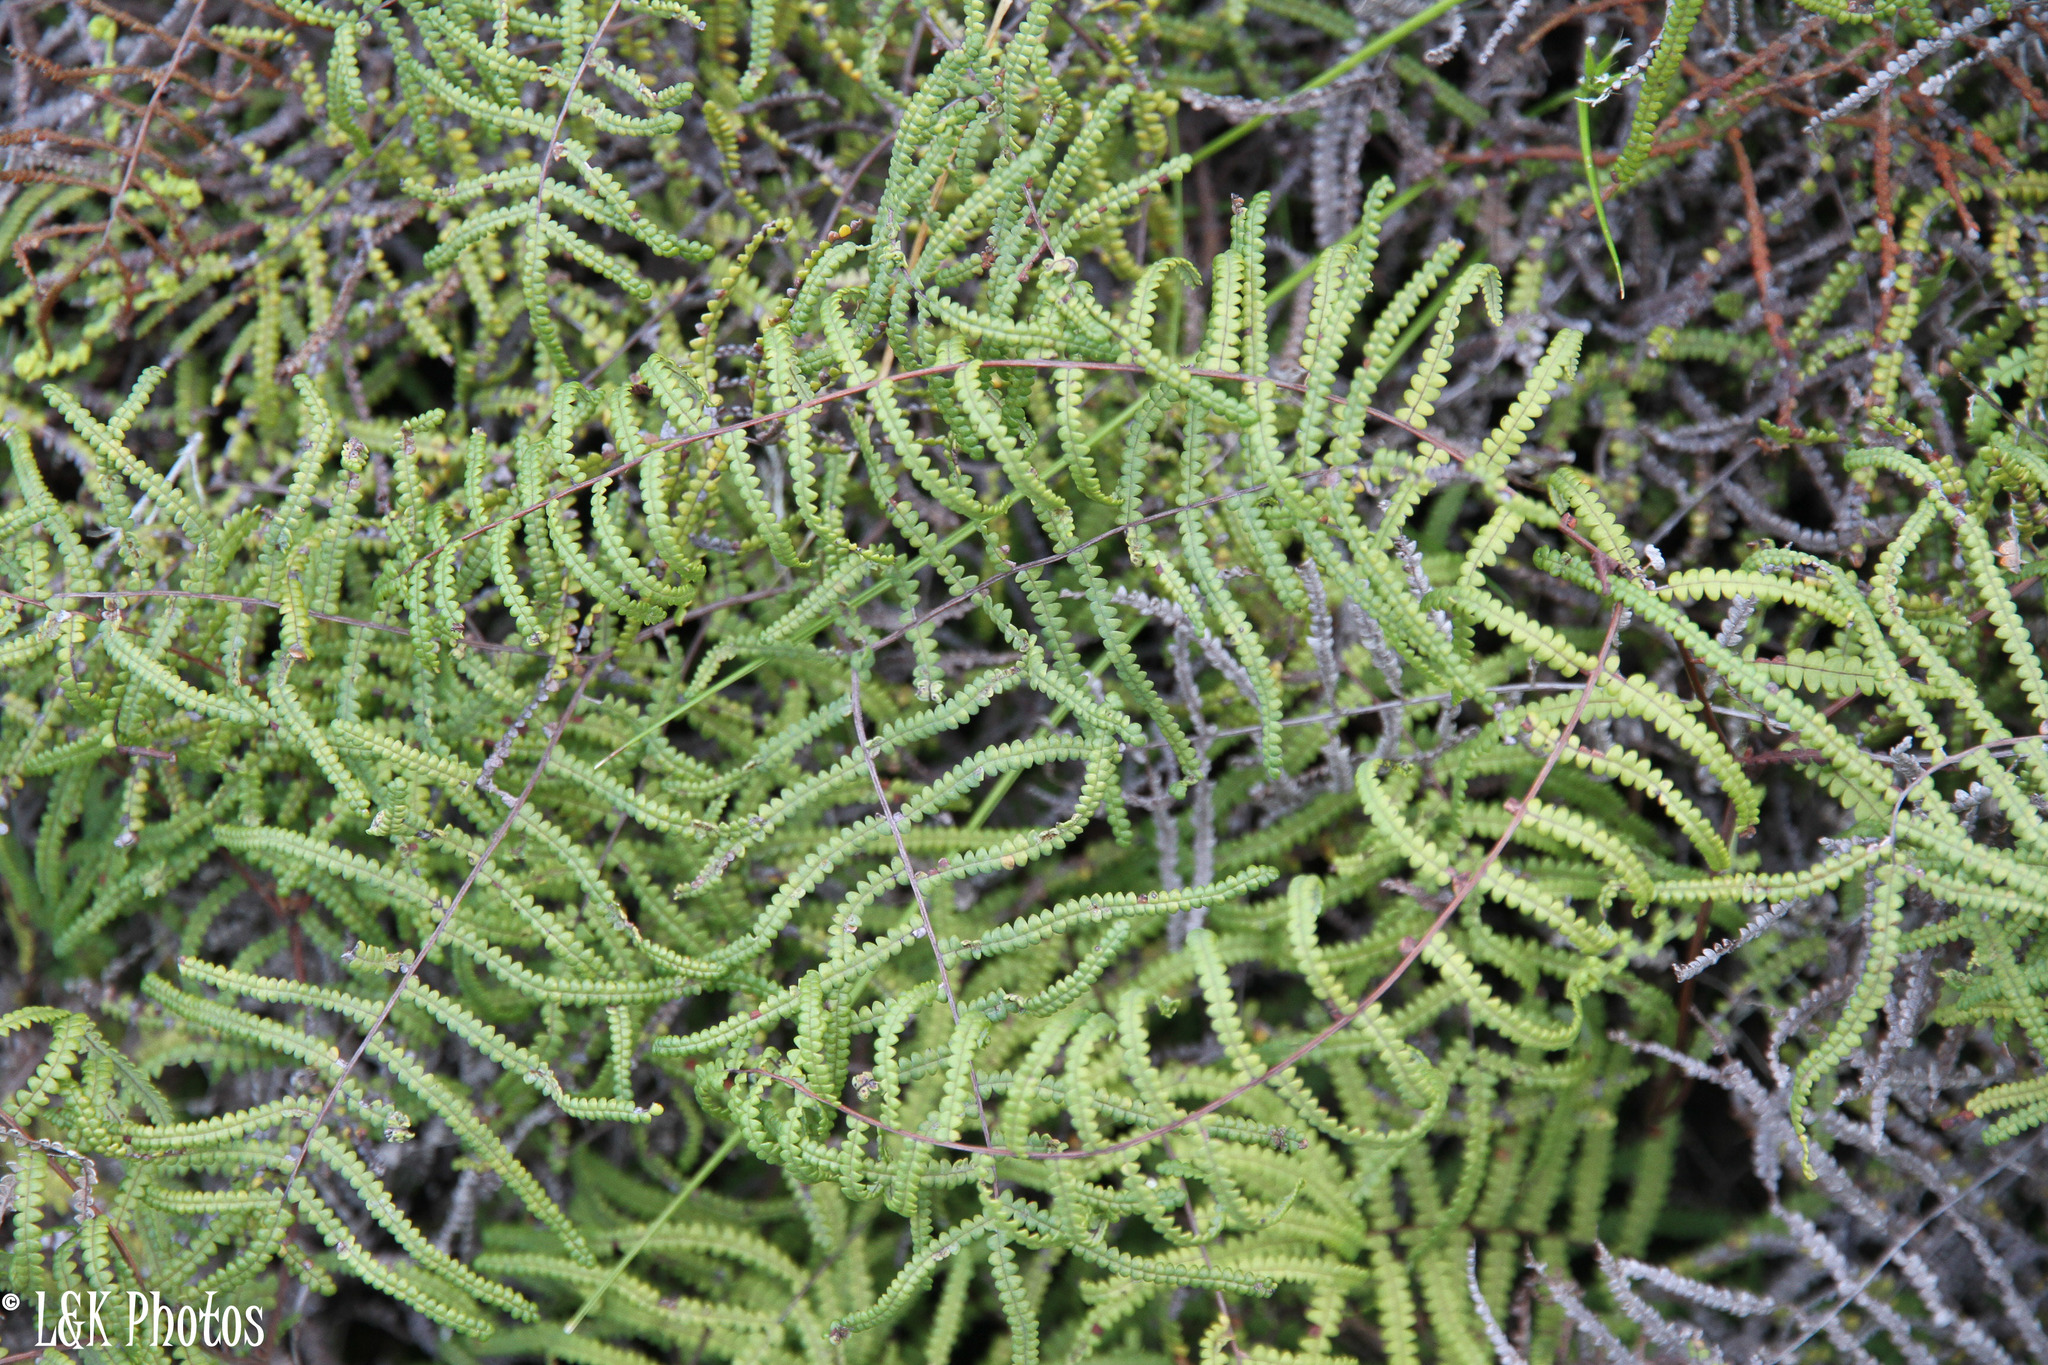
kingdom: Plantae
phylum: Tracheophyta
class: Polypodiopsida
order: Gleicheniales
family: Gleicheniaceae
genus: Gleichenia
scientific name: Gleichenia polypodioides
